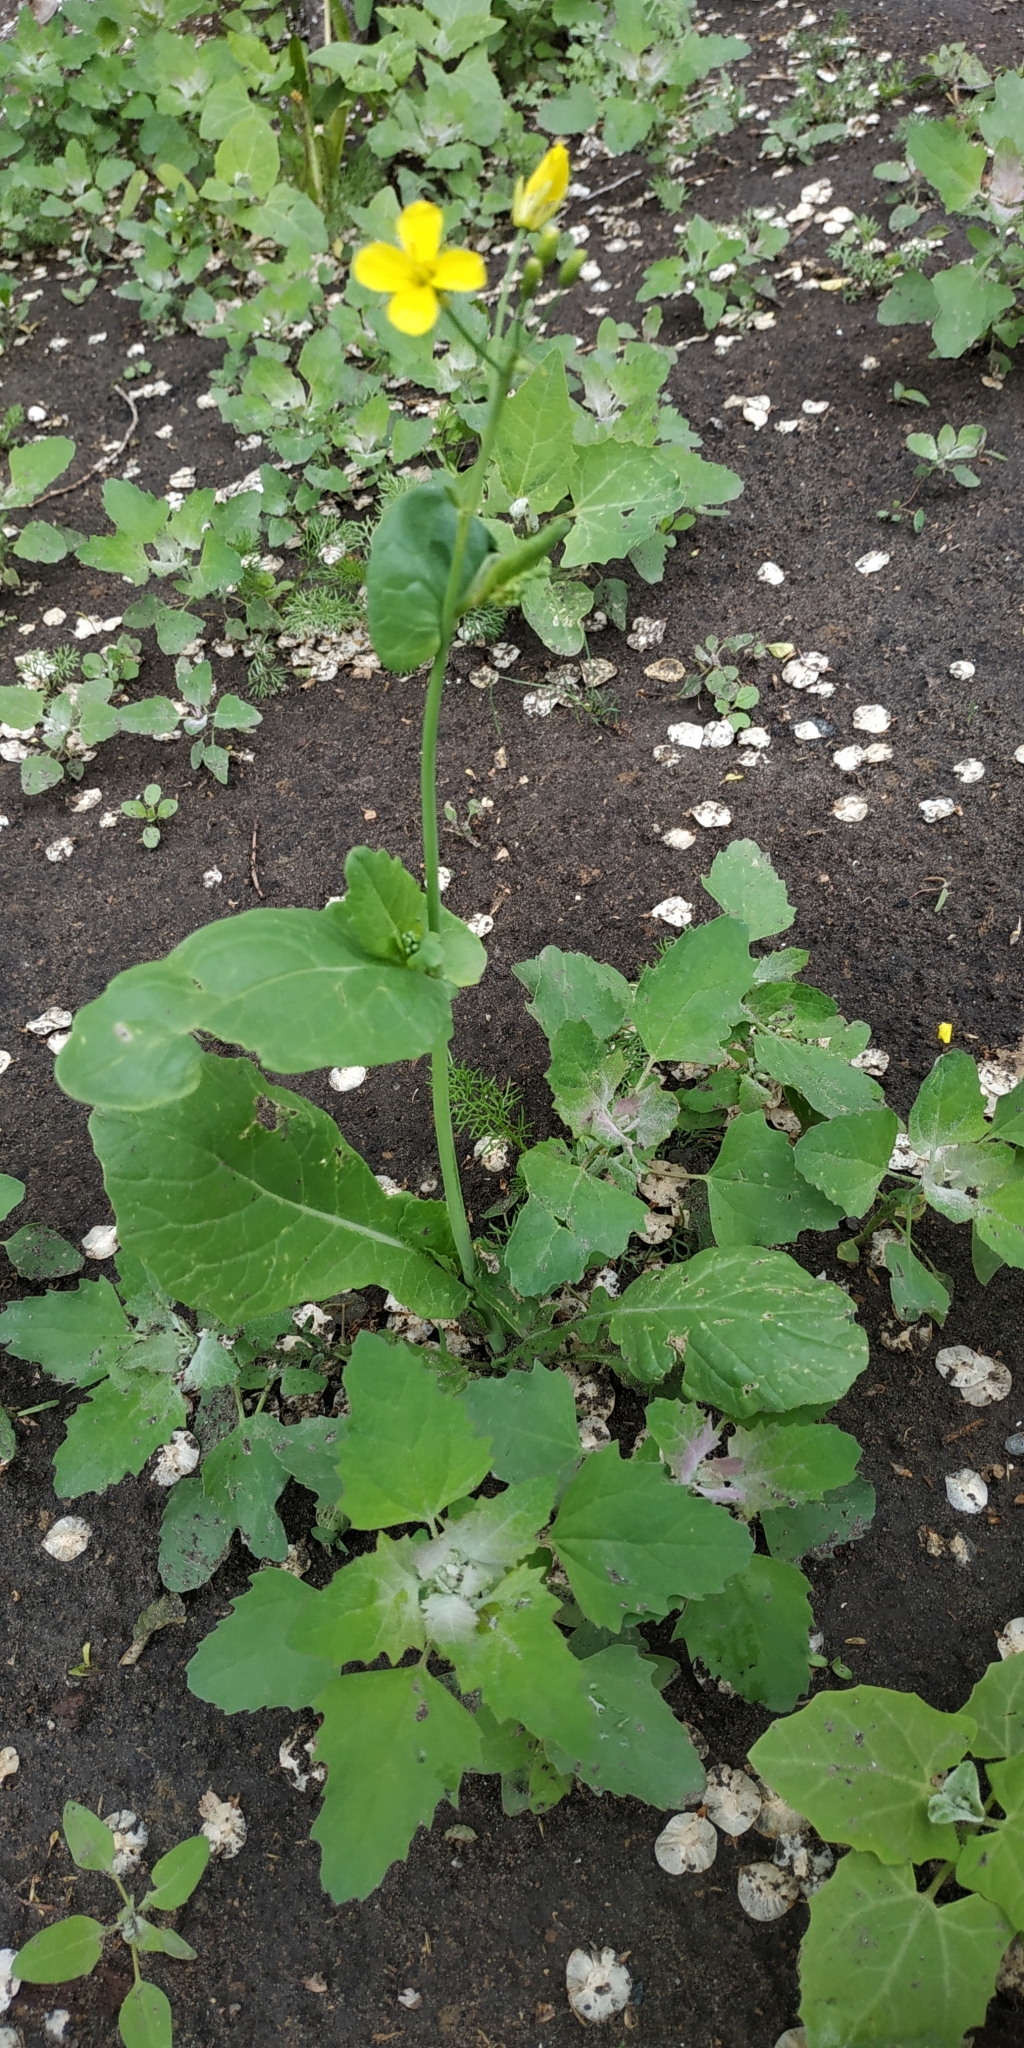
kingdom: Plantae
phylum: Tracheophyta
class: Magnoliopsida
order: Brassicales
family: Brassicaceae
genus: Brassica
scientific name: Brassica napus
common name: Rape
